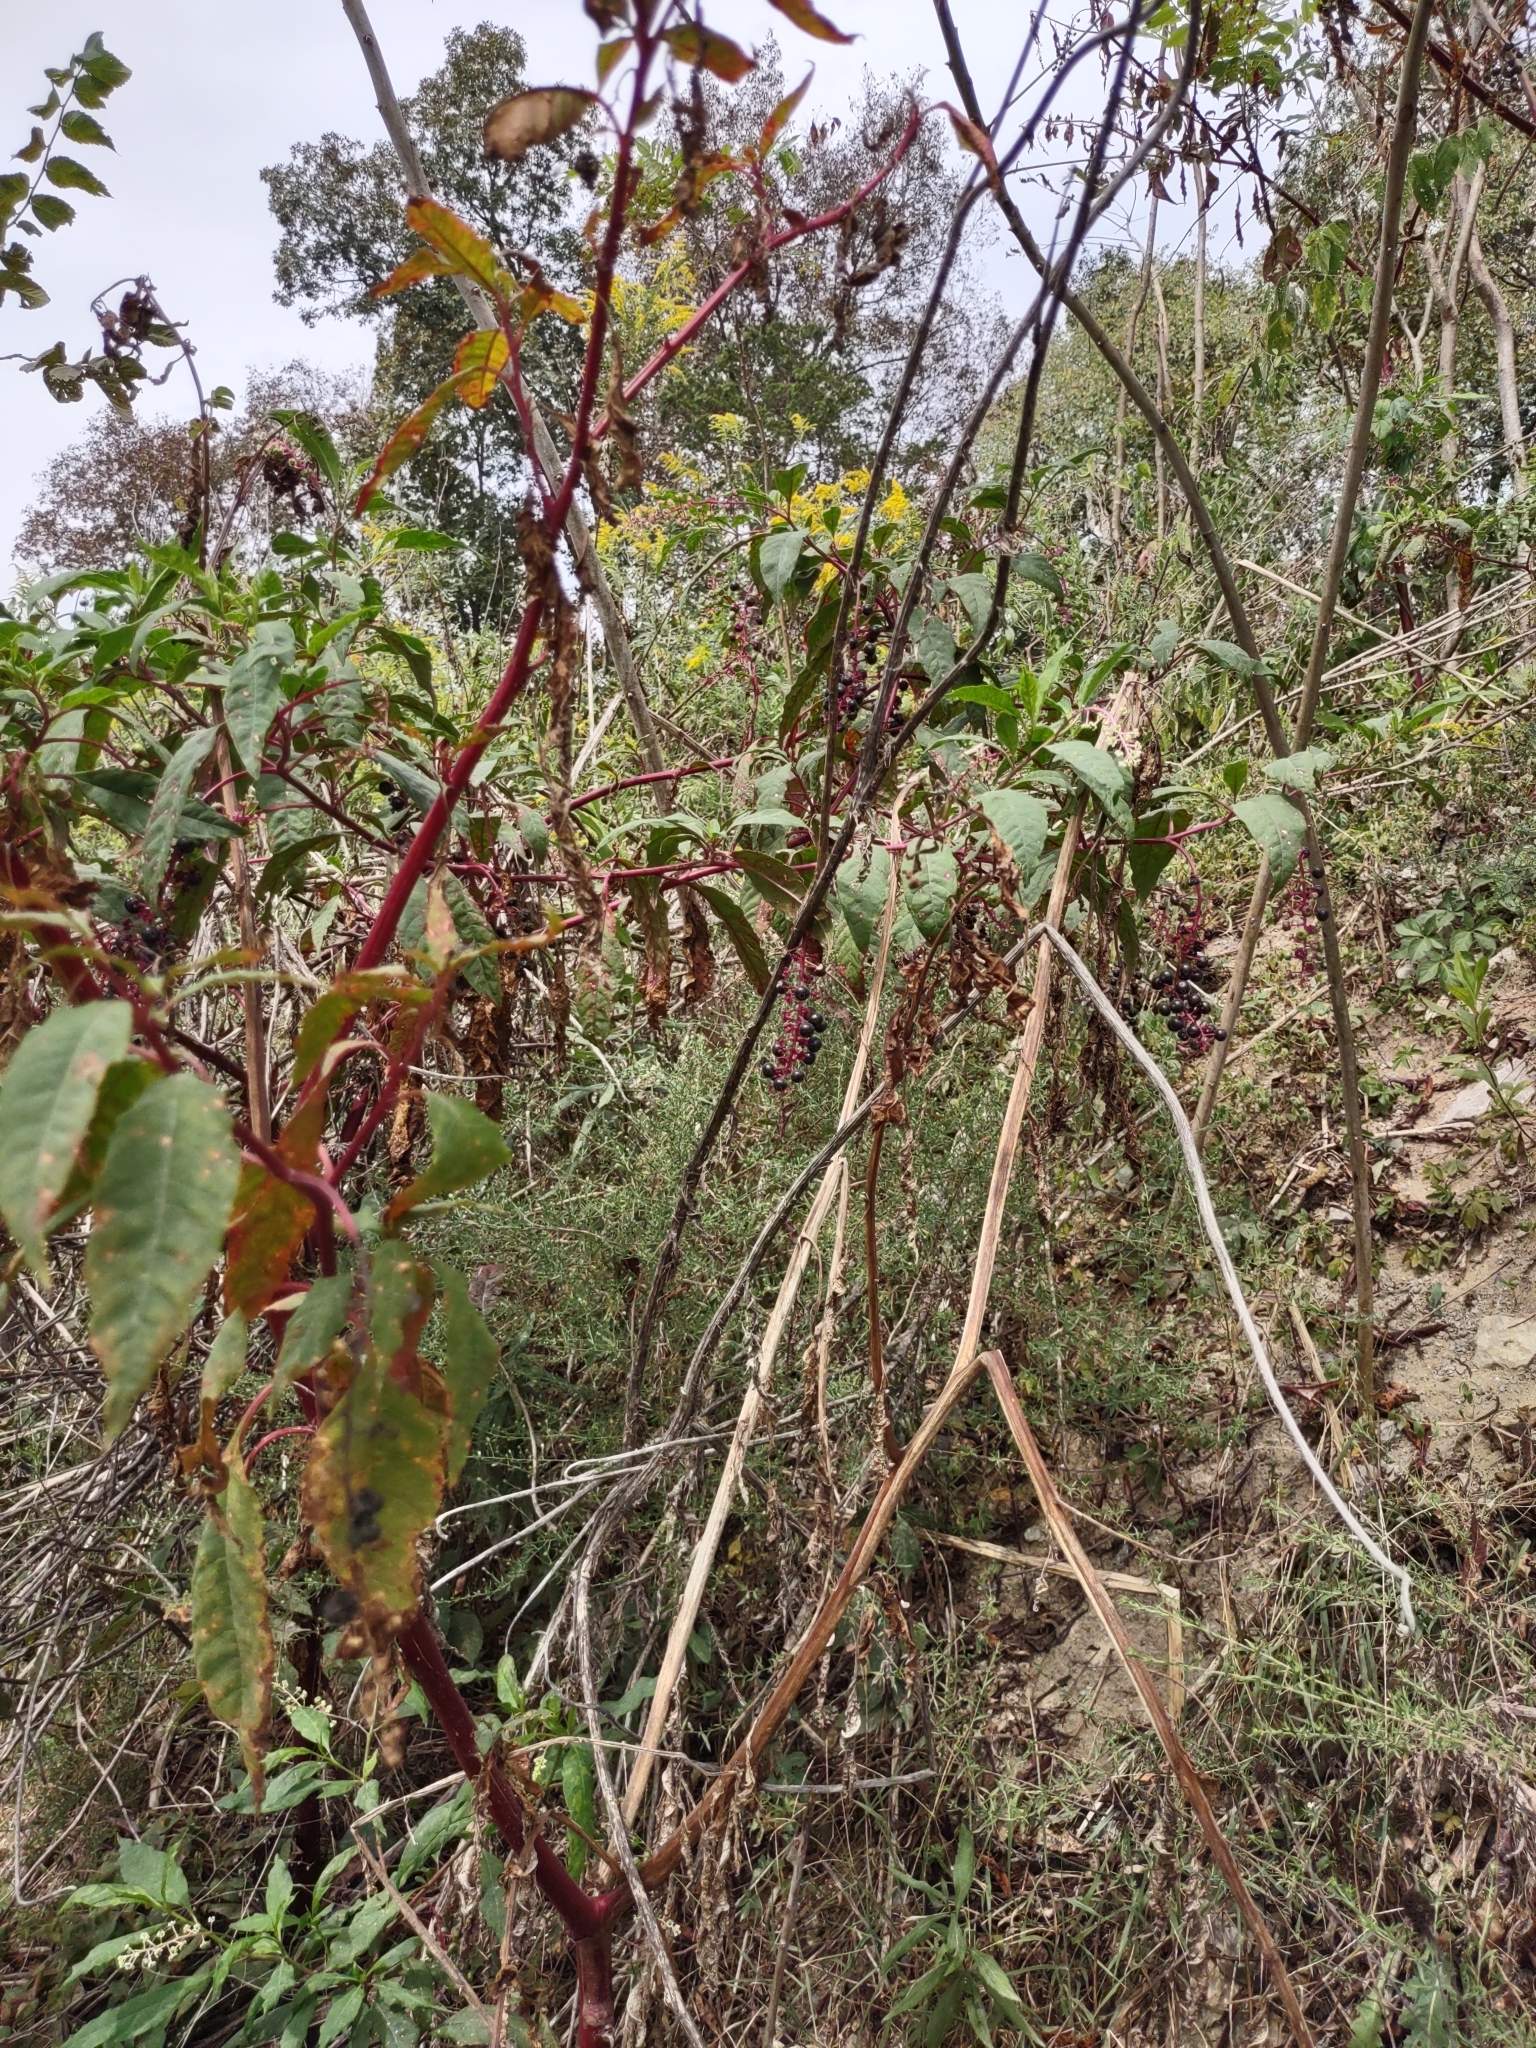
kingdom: Plantae
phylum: Tracheophyta
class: Magnoliopsida
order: Caryophyllales
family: Phytolaccaceae
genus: Phytolacca
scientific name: Phytolacca americana
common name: American pokeweed
